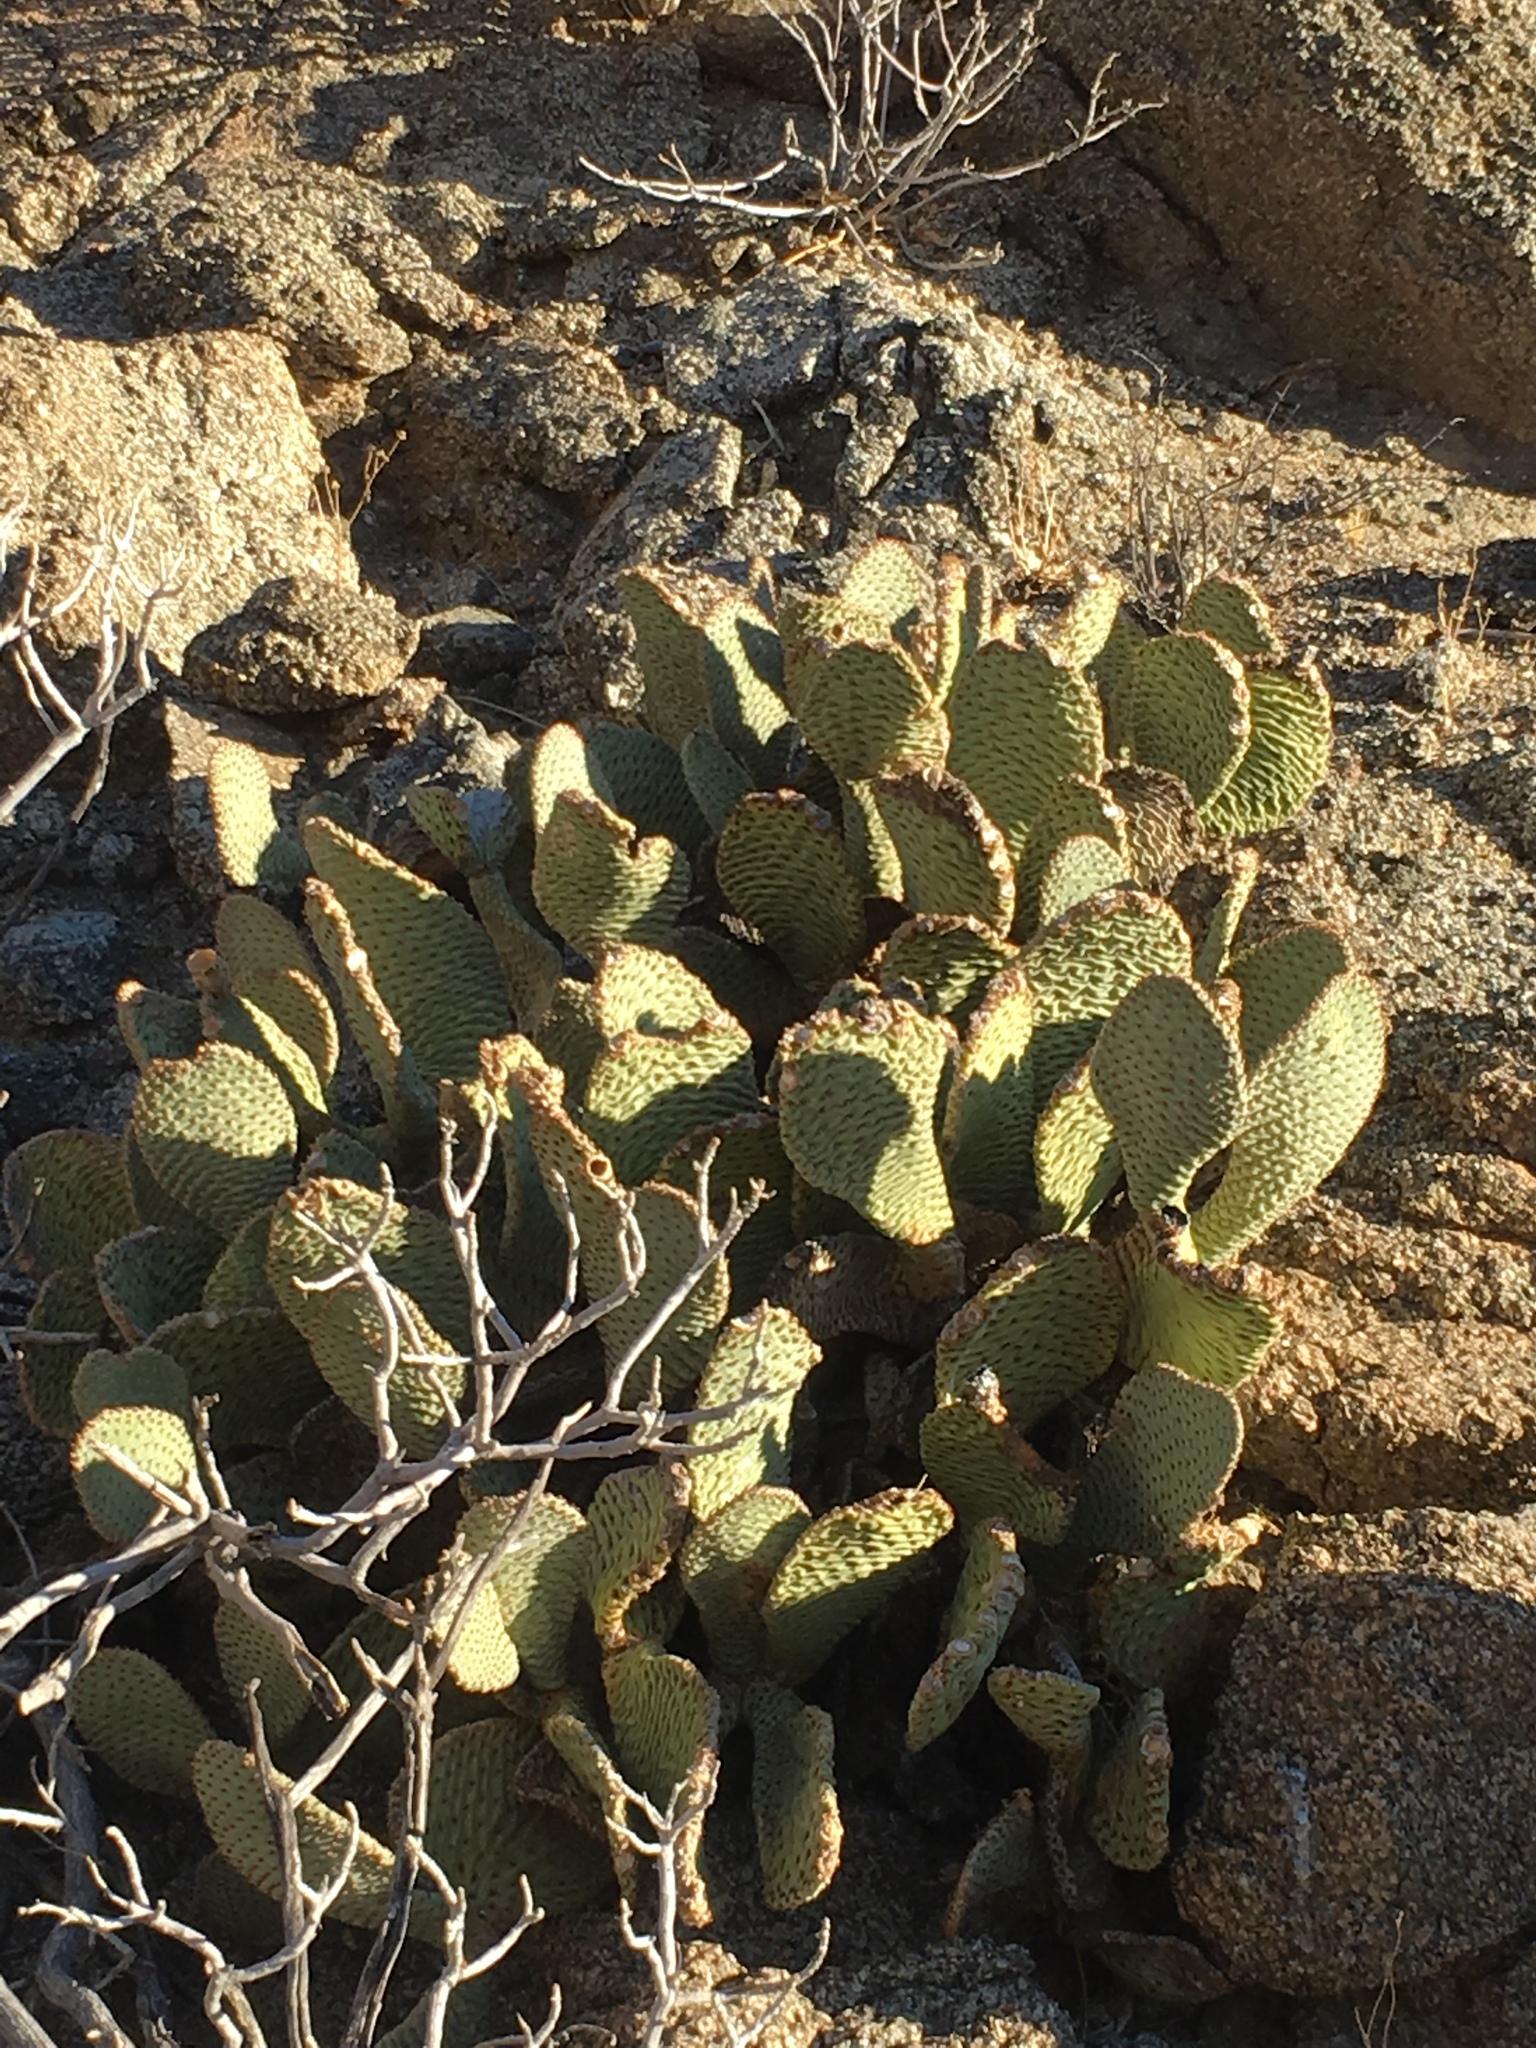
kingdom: Plantae
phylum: Tracheophyta
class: Magnoliopsida
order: Caryophyllales
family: Cactaceae
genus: Opuntia
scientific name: Opuntia basilaris
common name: Beavertail prickly-pear
